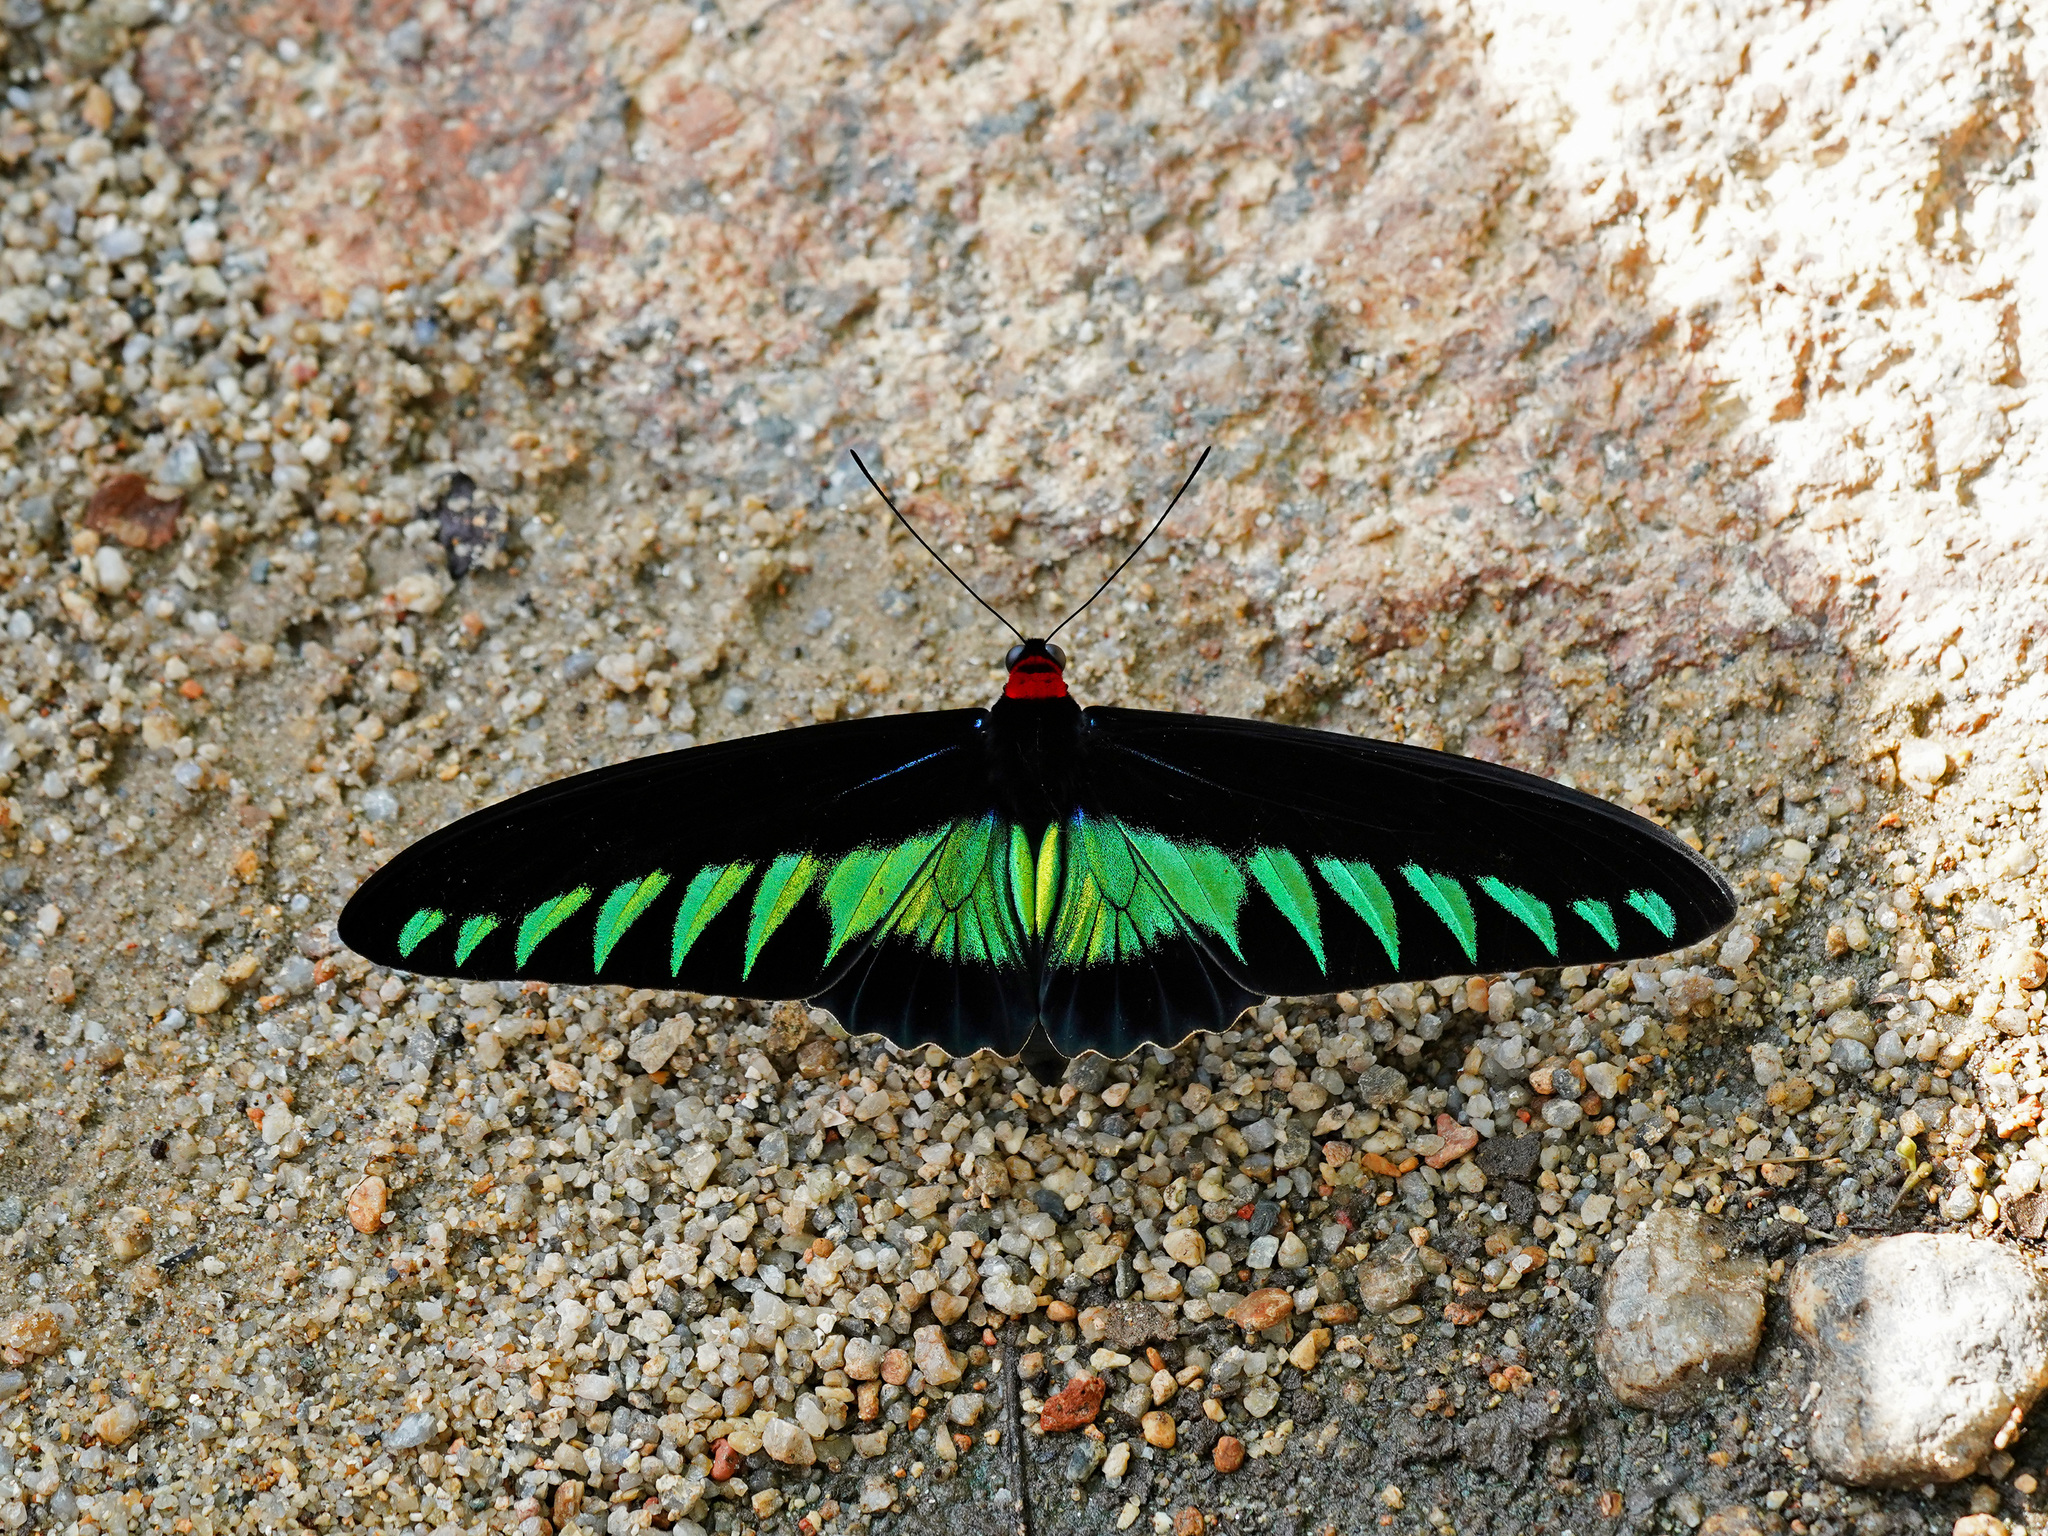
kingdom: Animalia
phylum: Arthropoda
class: Insecta
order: Lepidoptera
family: Papilionidae
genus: Trogonoptera
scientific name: Trogonoptera brookiana
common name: Raja brooke's birdwing
